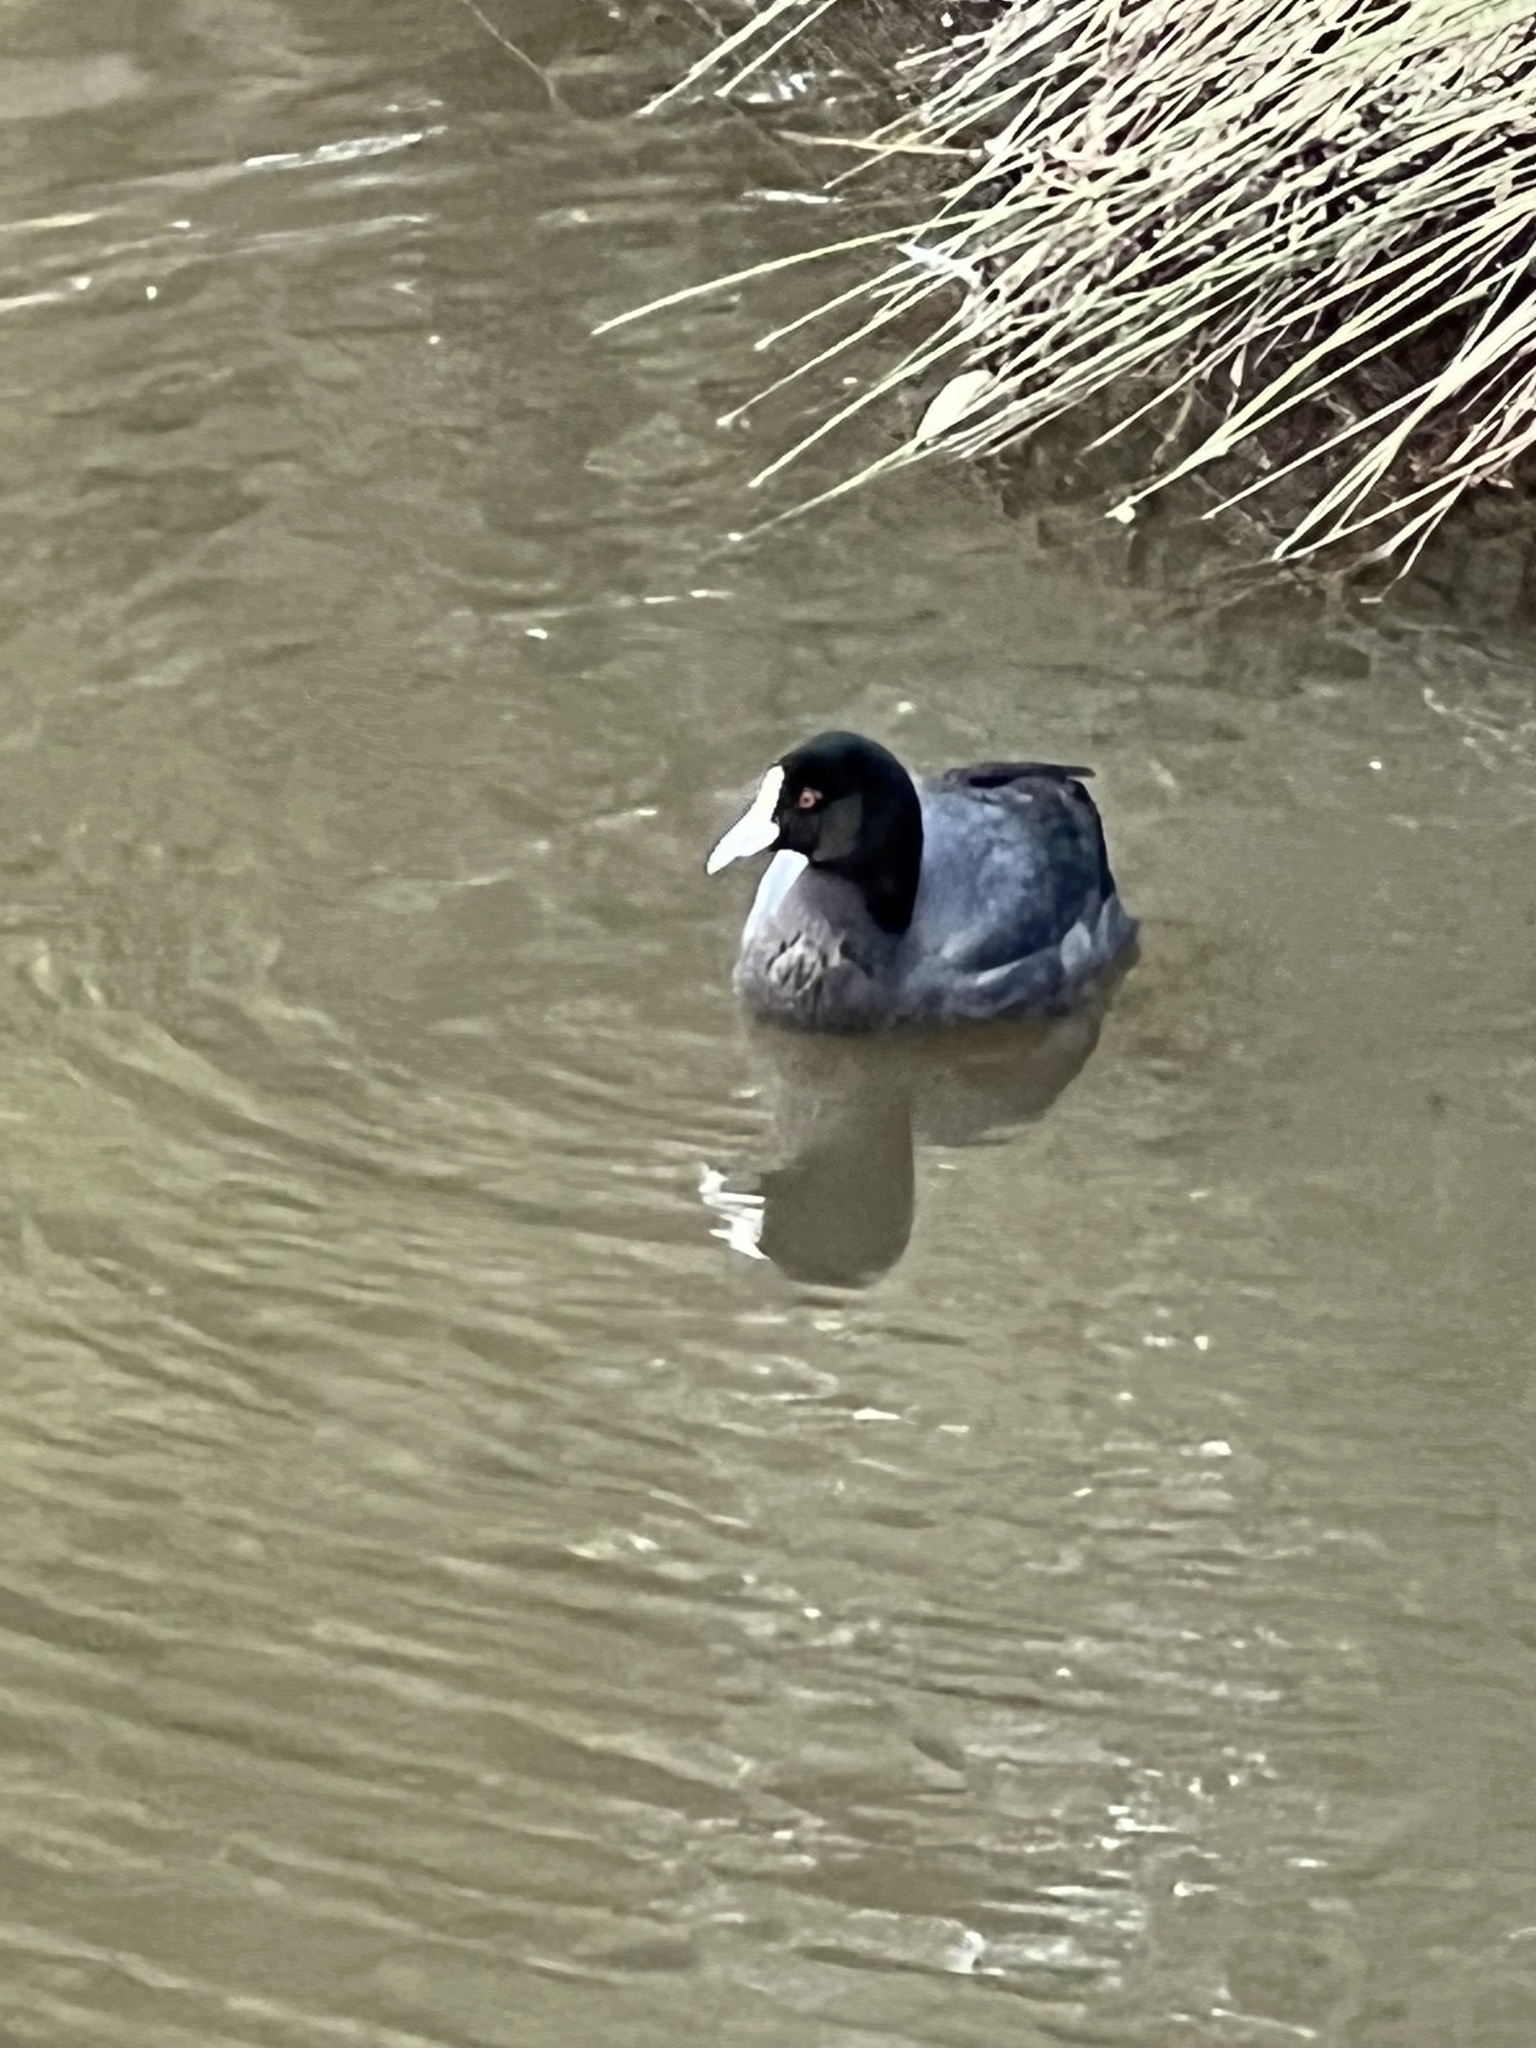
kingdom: Animalia
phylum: Chordata
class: Aves
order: Gruiformes
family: Rallidae
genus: Fulica
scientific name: Fulica atra
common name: Eurasian coot
